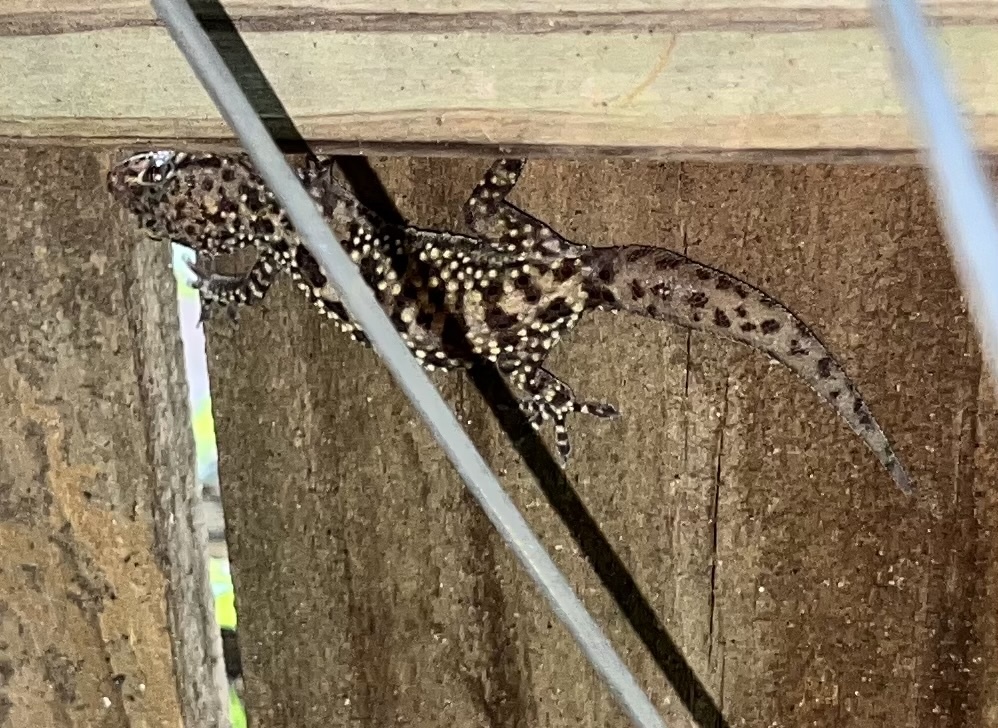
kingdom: Animalia
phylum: Chordata
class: Squamata
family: Gekkonidae
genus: Hemidactylus
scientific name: Hemidactylus turcicus
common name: Turkish gecko
